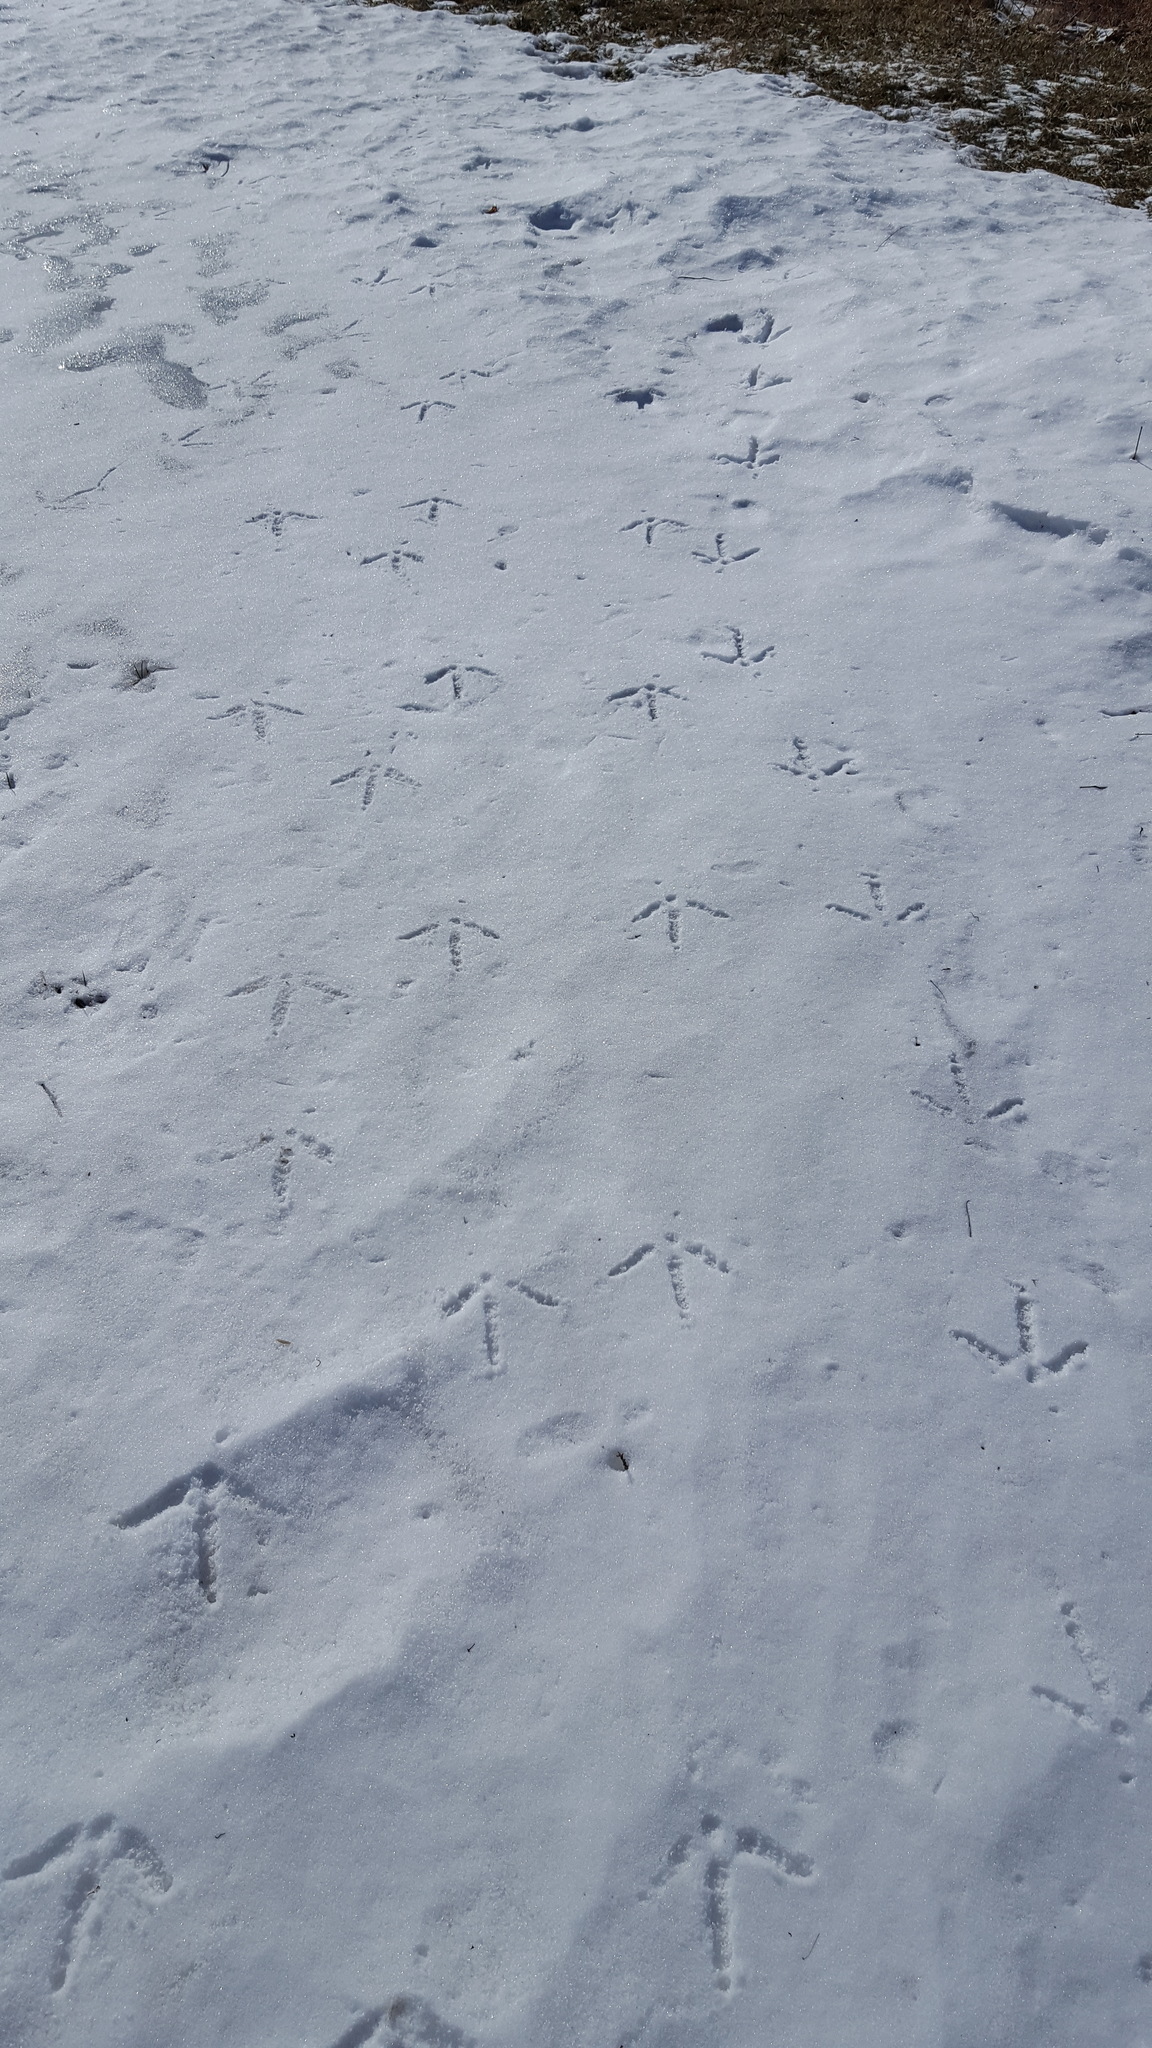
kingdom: Animalia
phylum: Chordata
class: Aves
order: Galliformes
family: Phasianidae
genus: Meleagris
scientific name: Meleagris gallopavo
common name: Wild turkey
